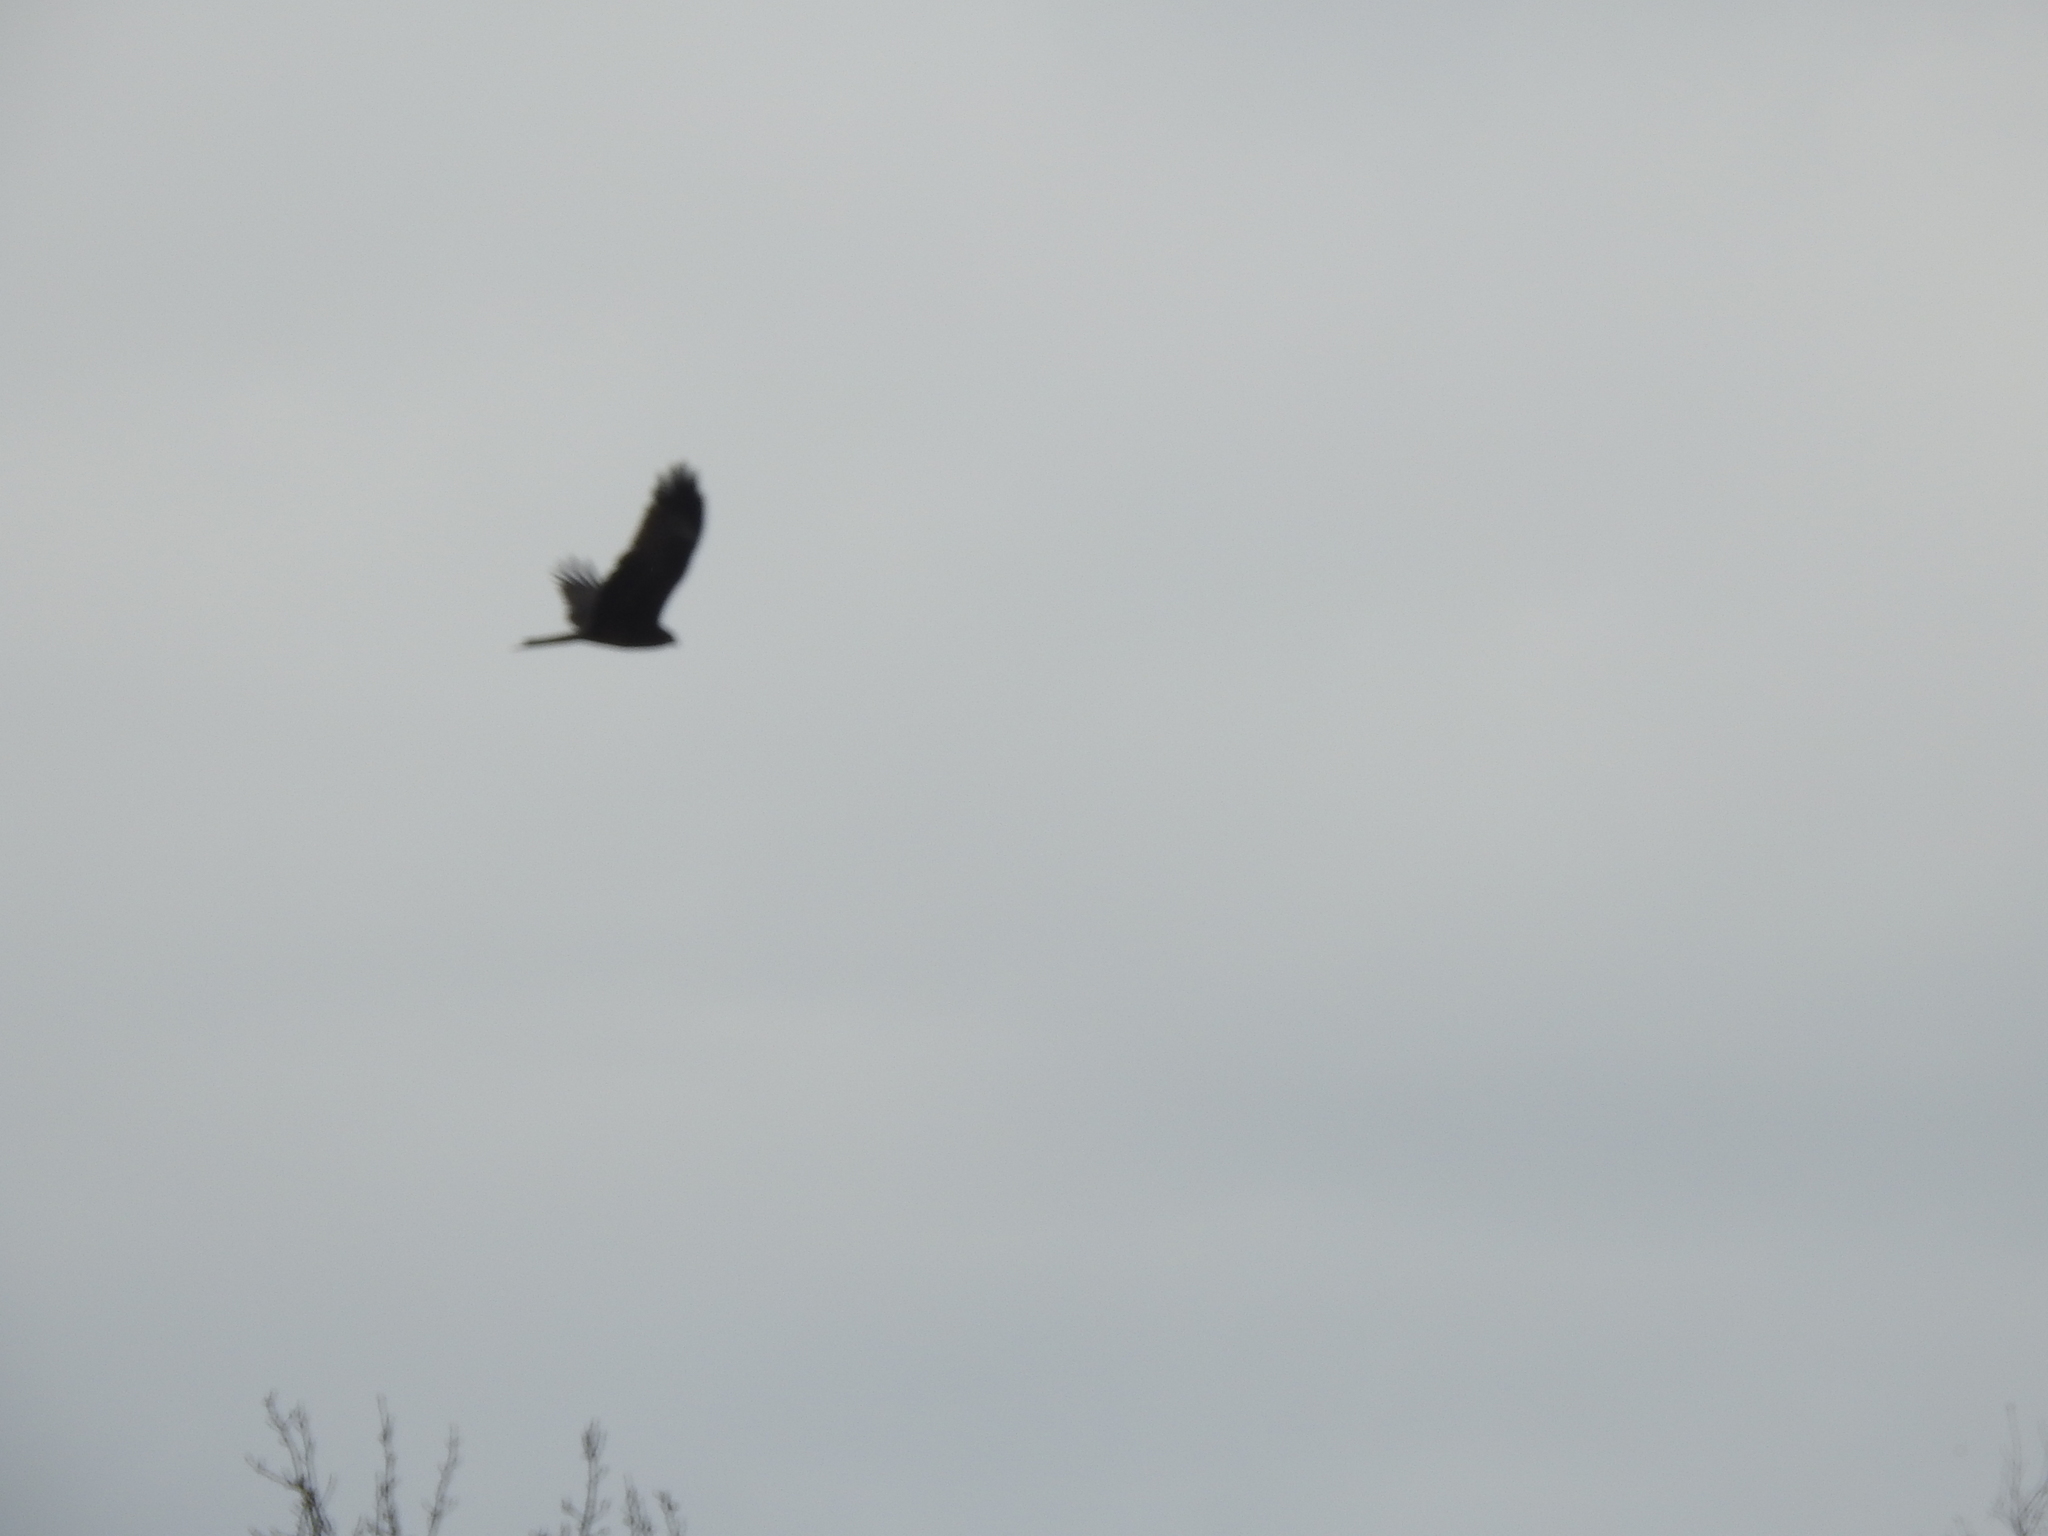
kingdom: Animalia
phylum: Chordata
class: Aves
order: Accipitriformes
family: Accipitridae
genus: Milvus
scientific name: Milvus migrans
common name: Black kite
